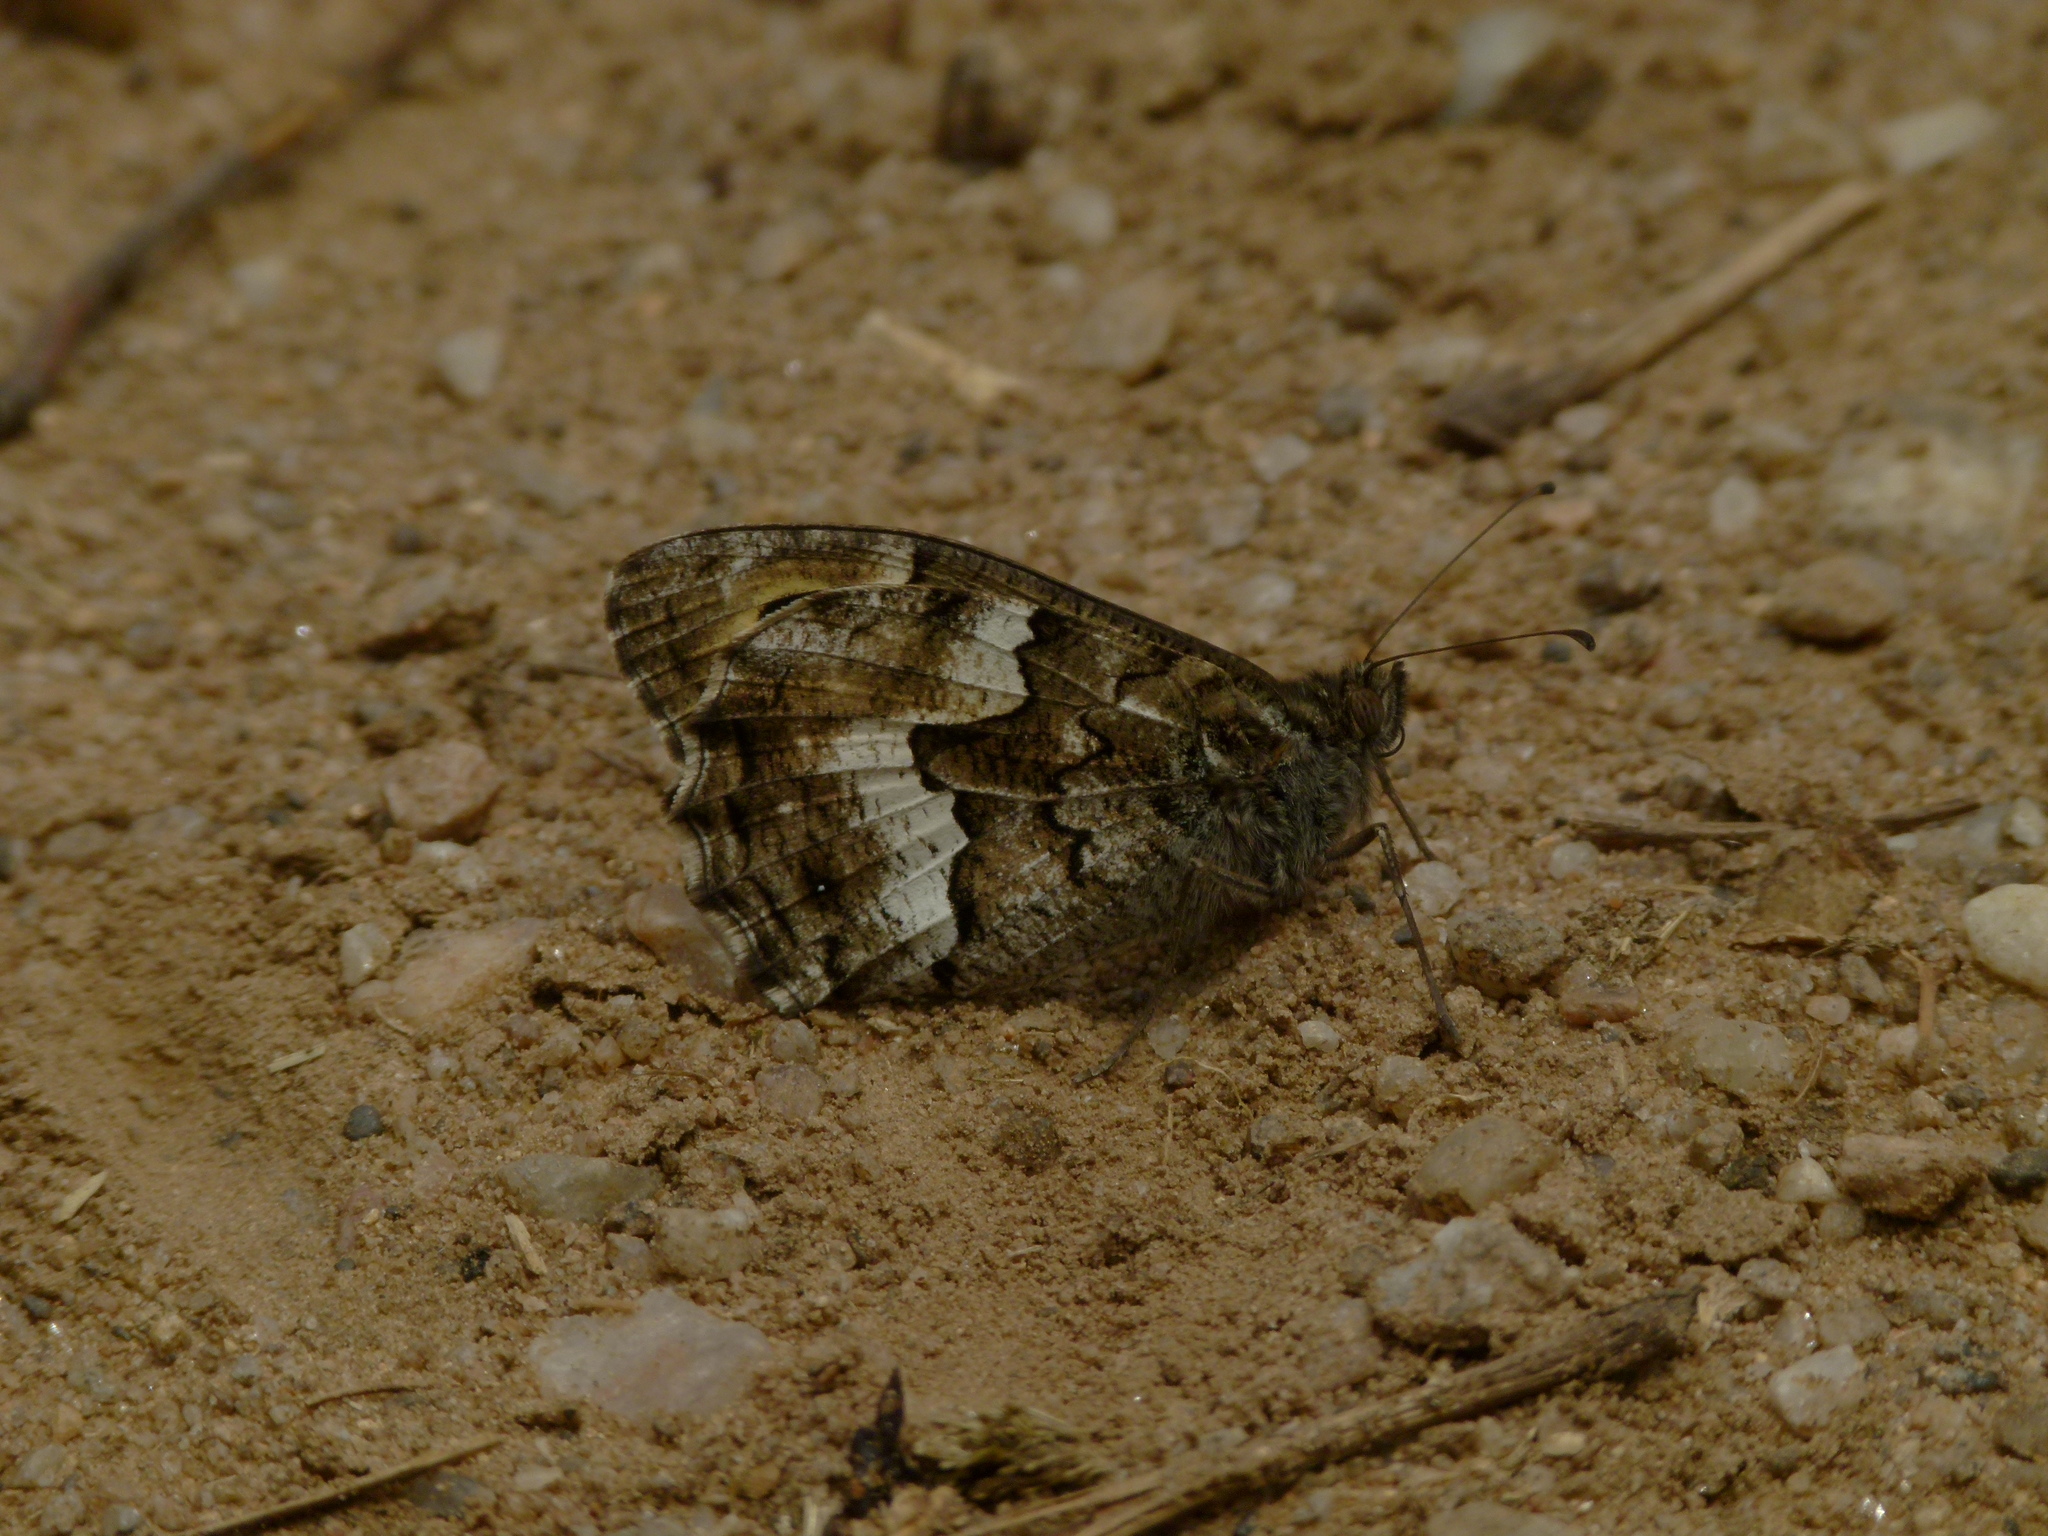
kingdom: Animalia
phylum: Arthropoda
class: Insecta
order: Lepidoptera
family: Nymphalidae
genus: Hipparchia
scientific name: Hipparchia semele
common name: Grayling
